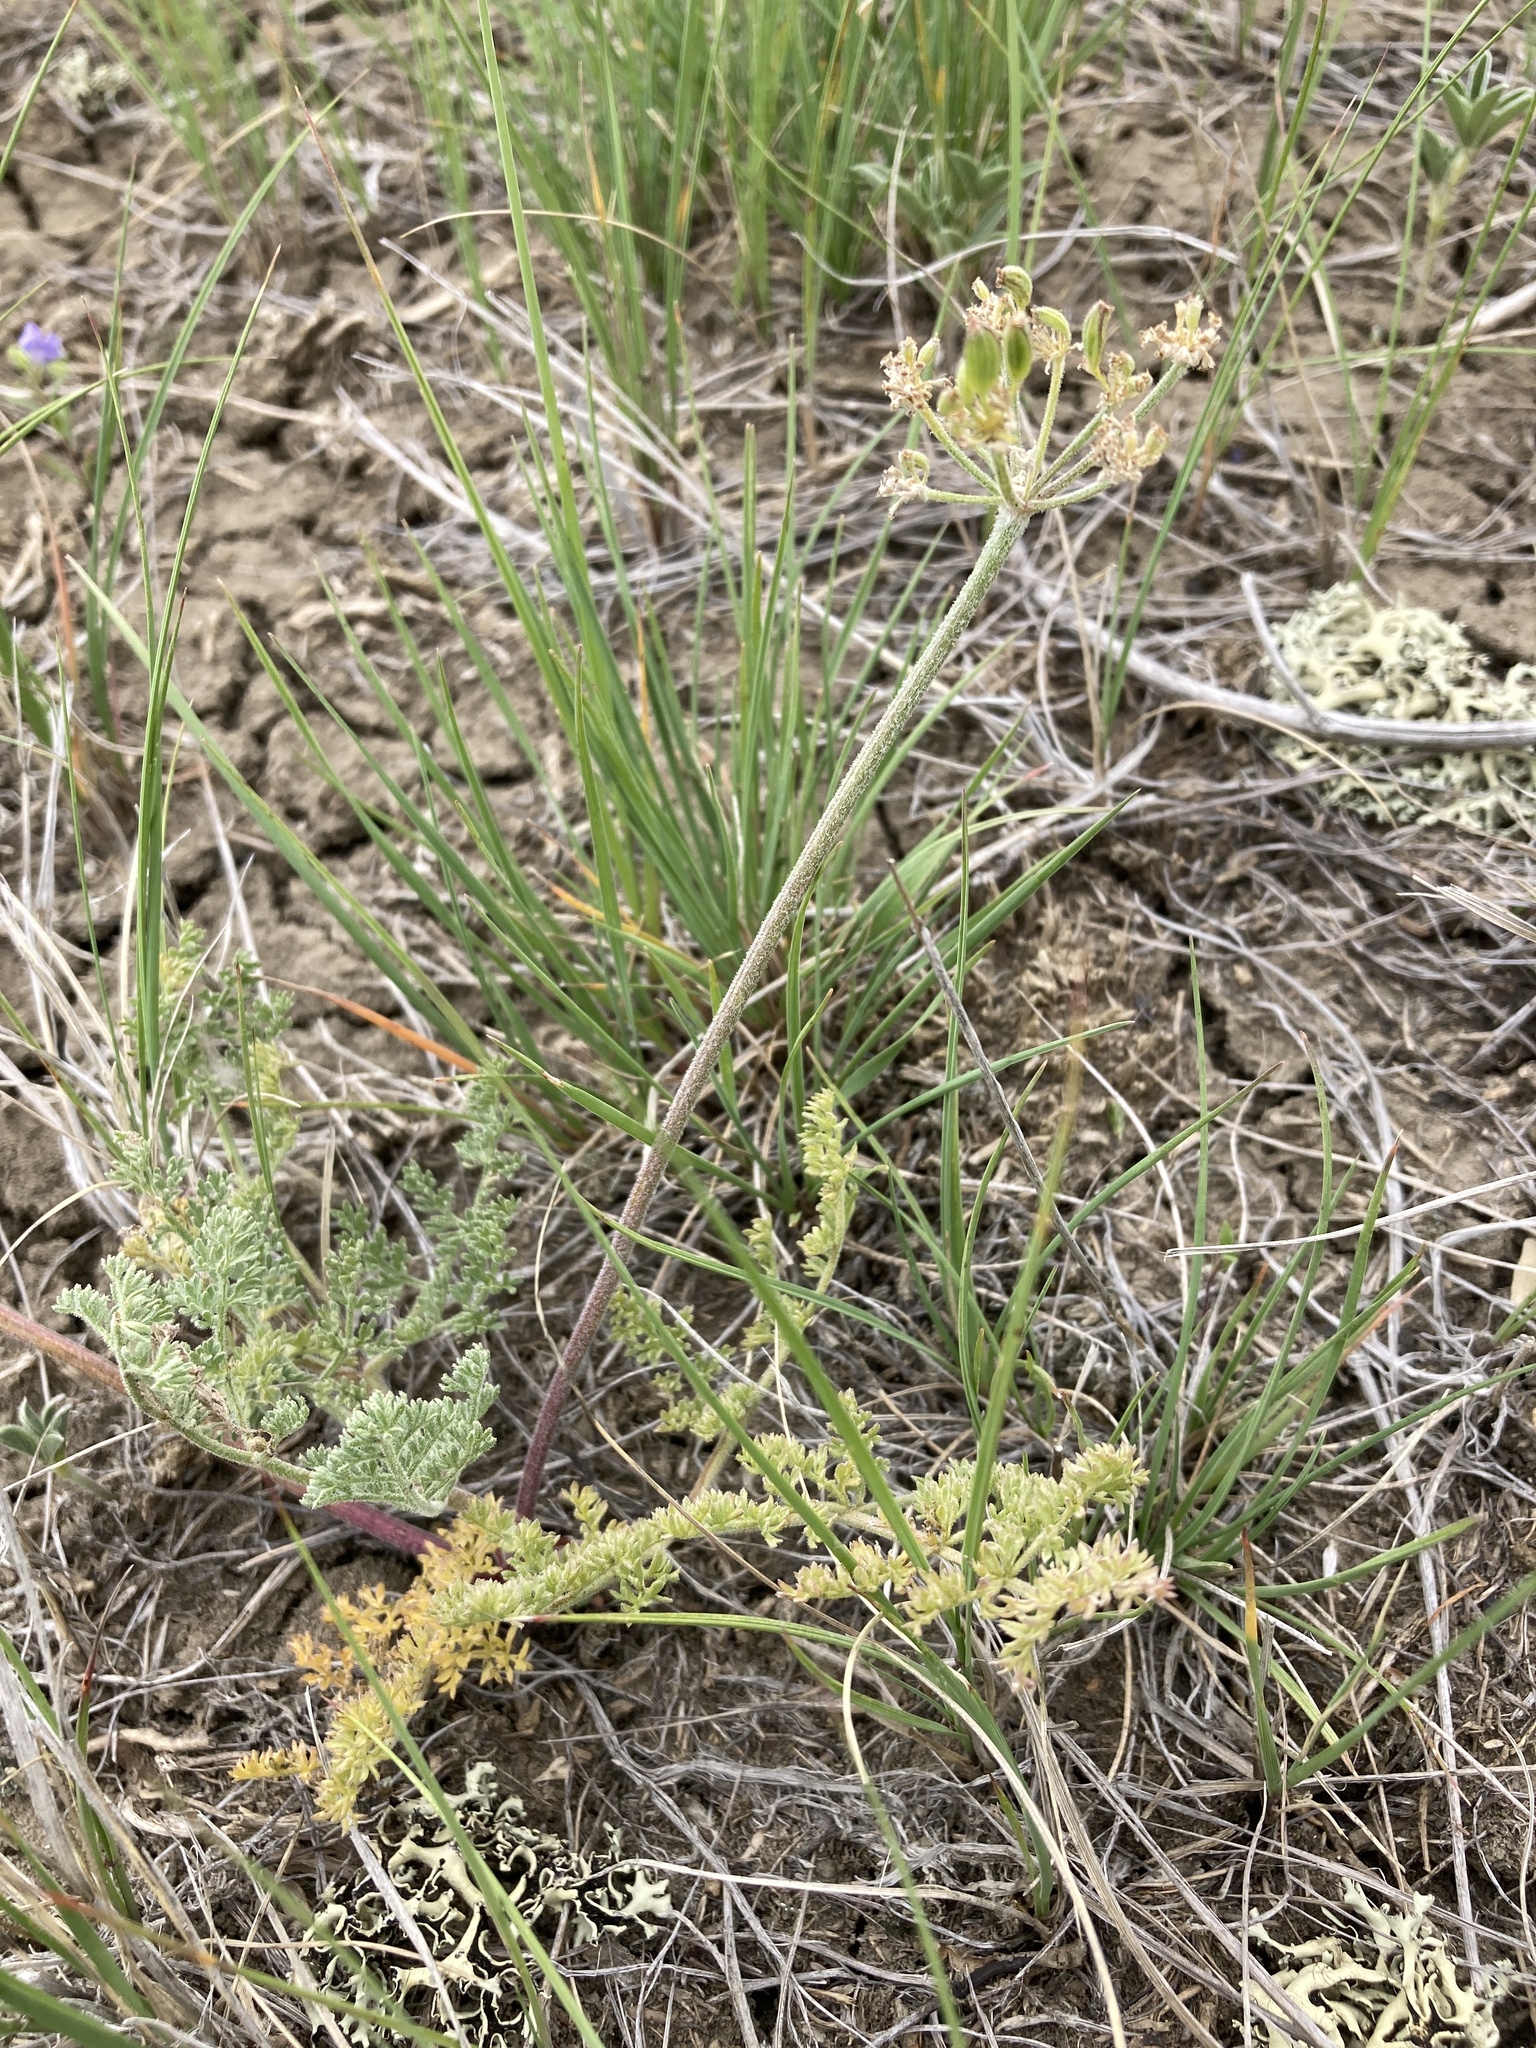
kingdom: Plantae
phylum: Tracheophyta
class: Magnoliopsida
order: Apiales
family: Apiaceae
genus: Lomatium
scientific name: Lomatium foeniculaceum
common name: Desert-parsley
